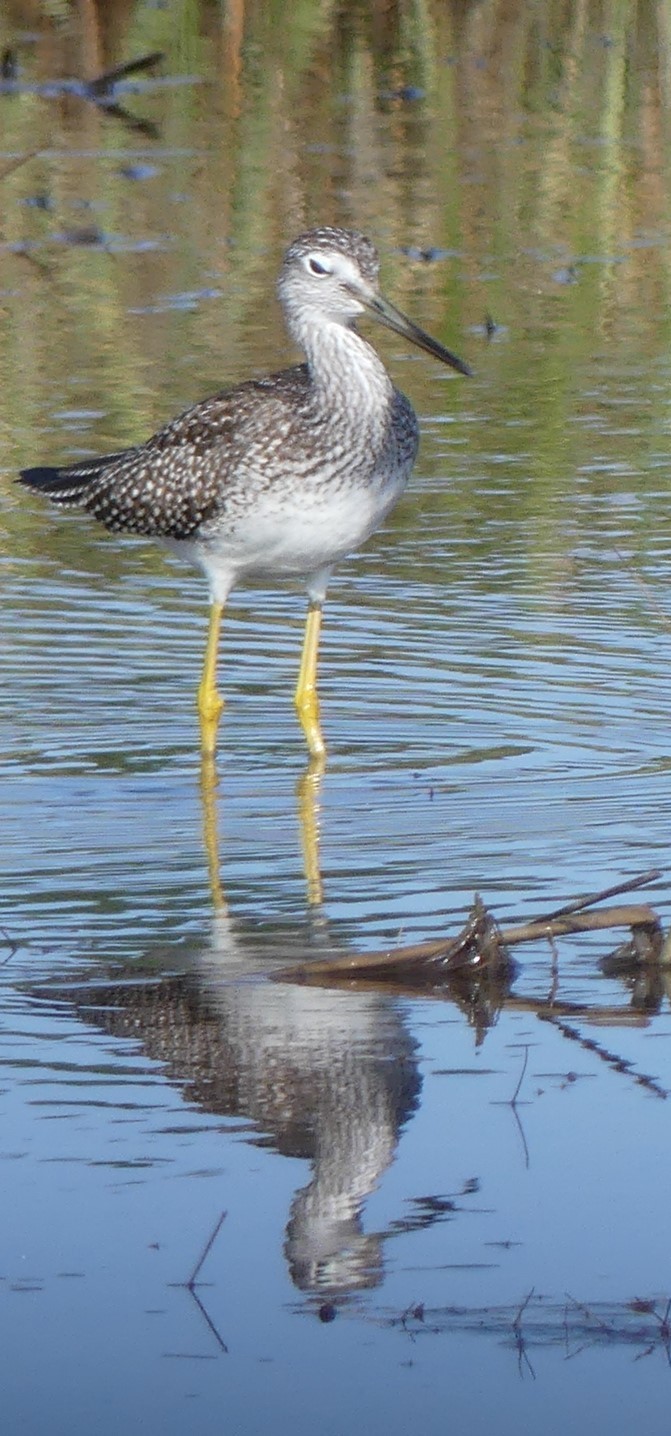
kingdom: Animalia
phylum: Chordata
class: Aves
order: Charadriiformes
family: Scolopacidae
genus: Tringa
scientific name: Tringa melanoleuca
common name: Greater yellowlegs
